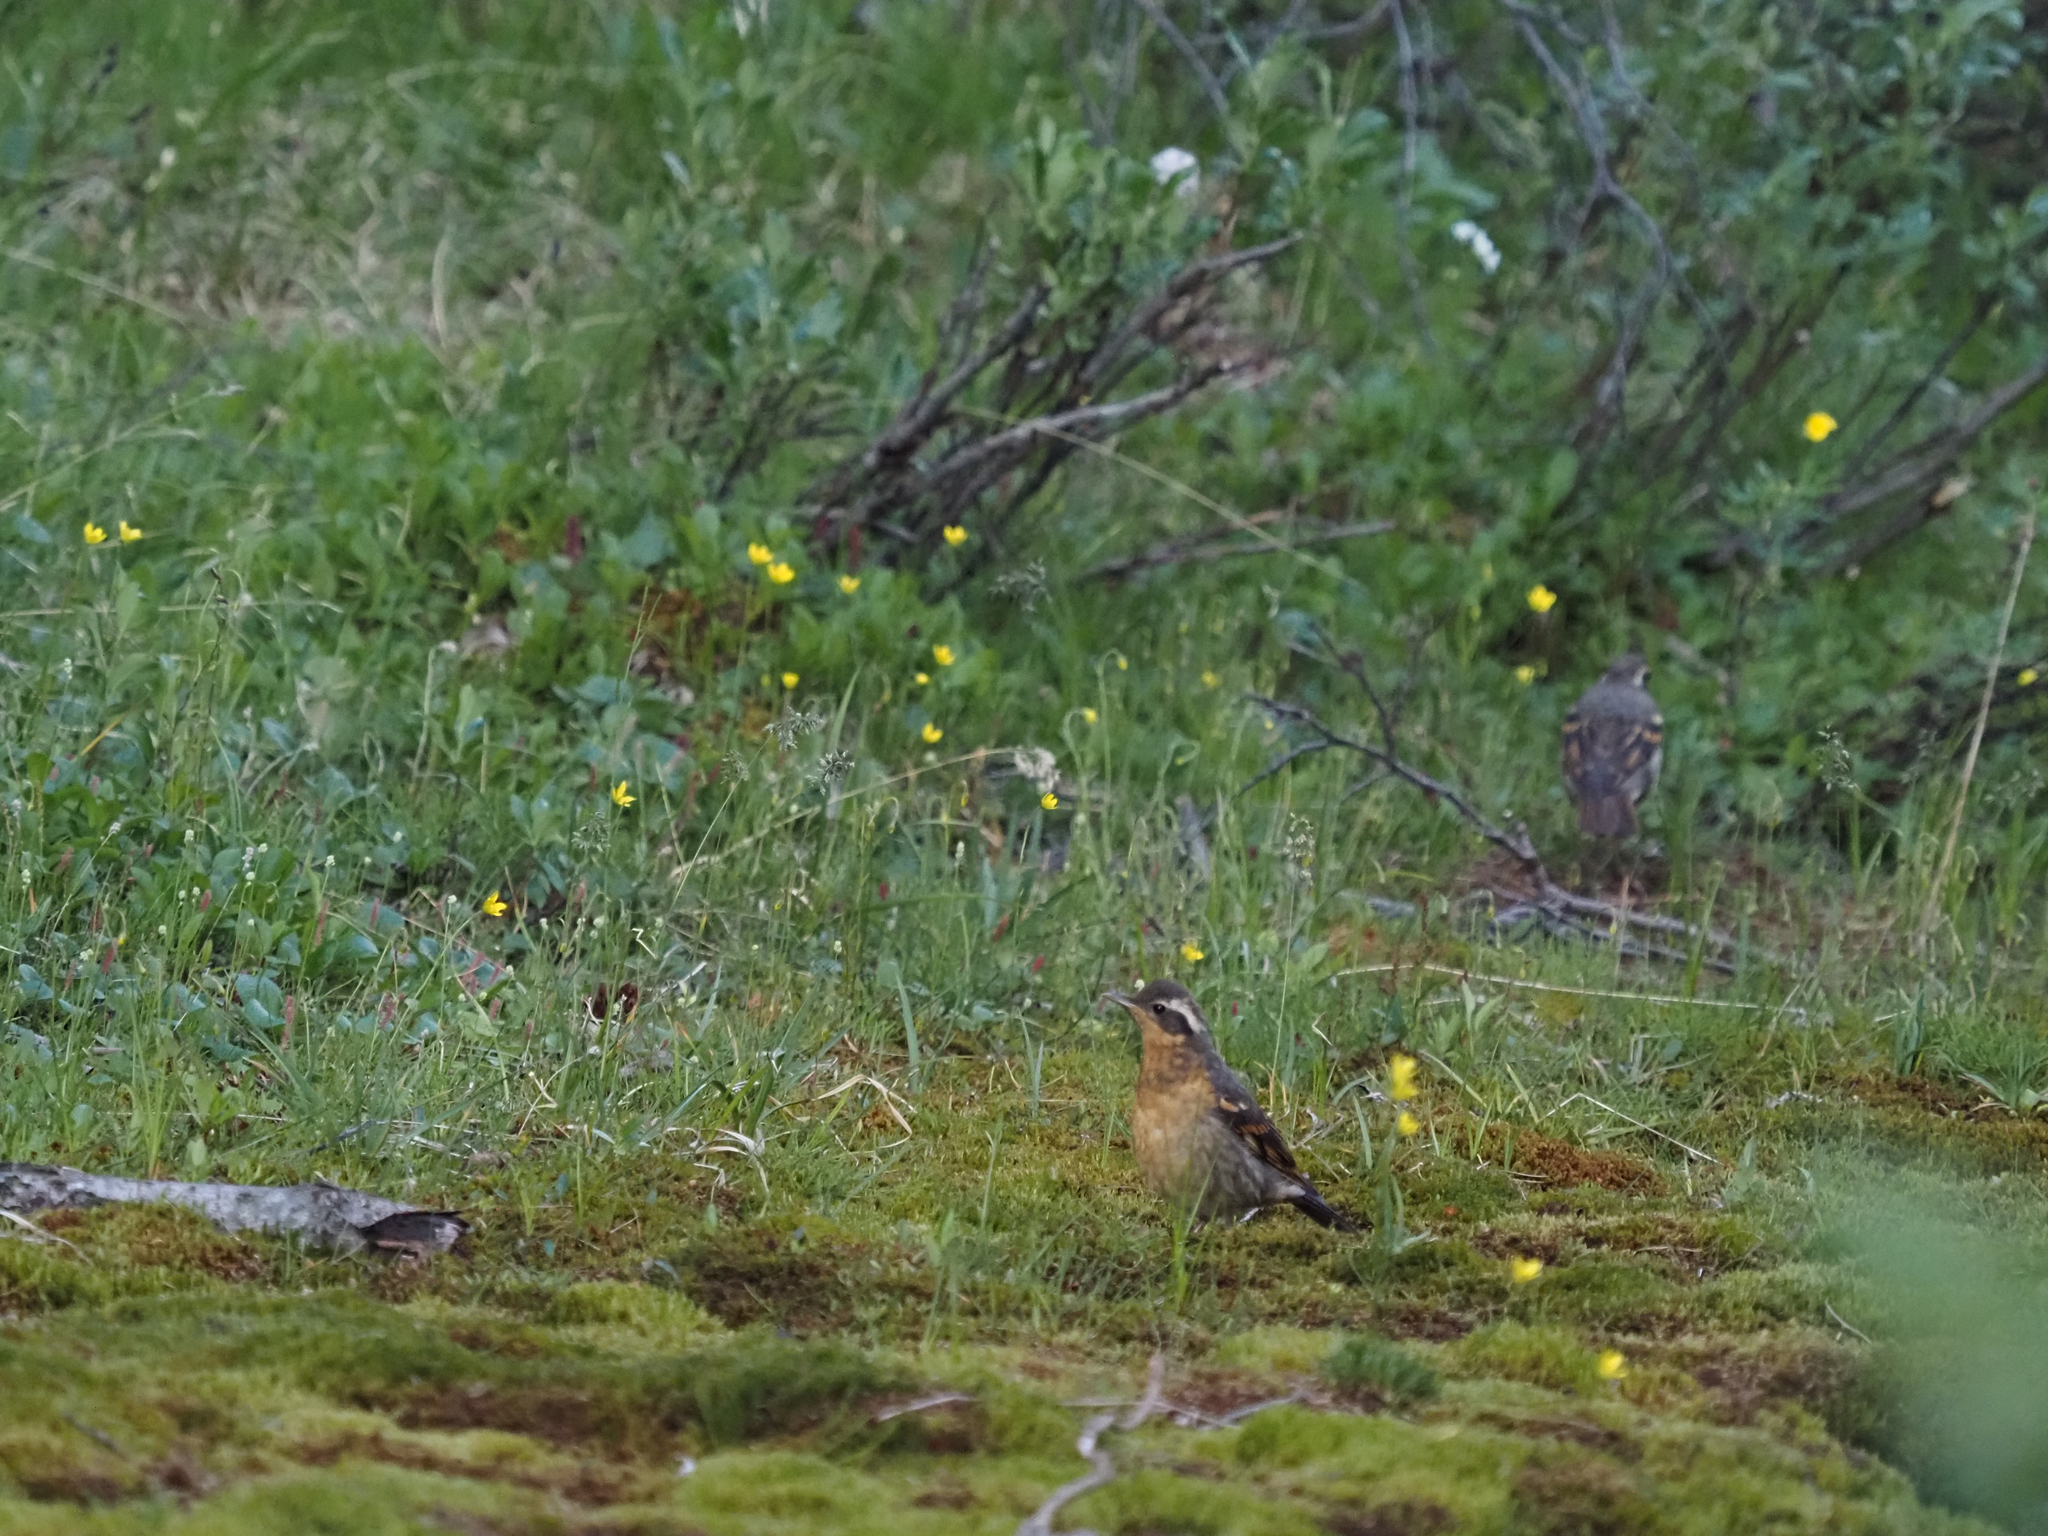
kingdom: Animalia
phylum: Chordata
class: Aves
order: Passeriformes
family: Turdidae
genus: Ixoreus
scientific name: Ixoreus naevius
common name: Varied thrush
